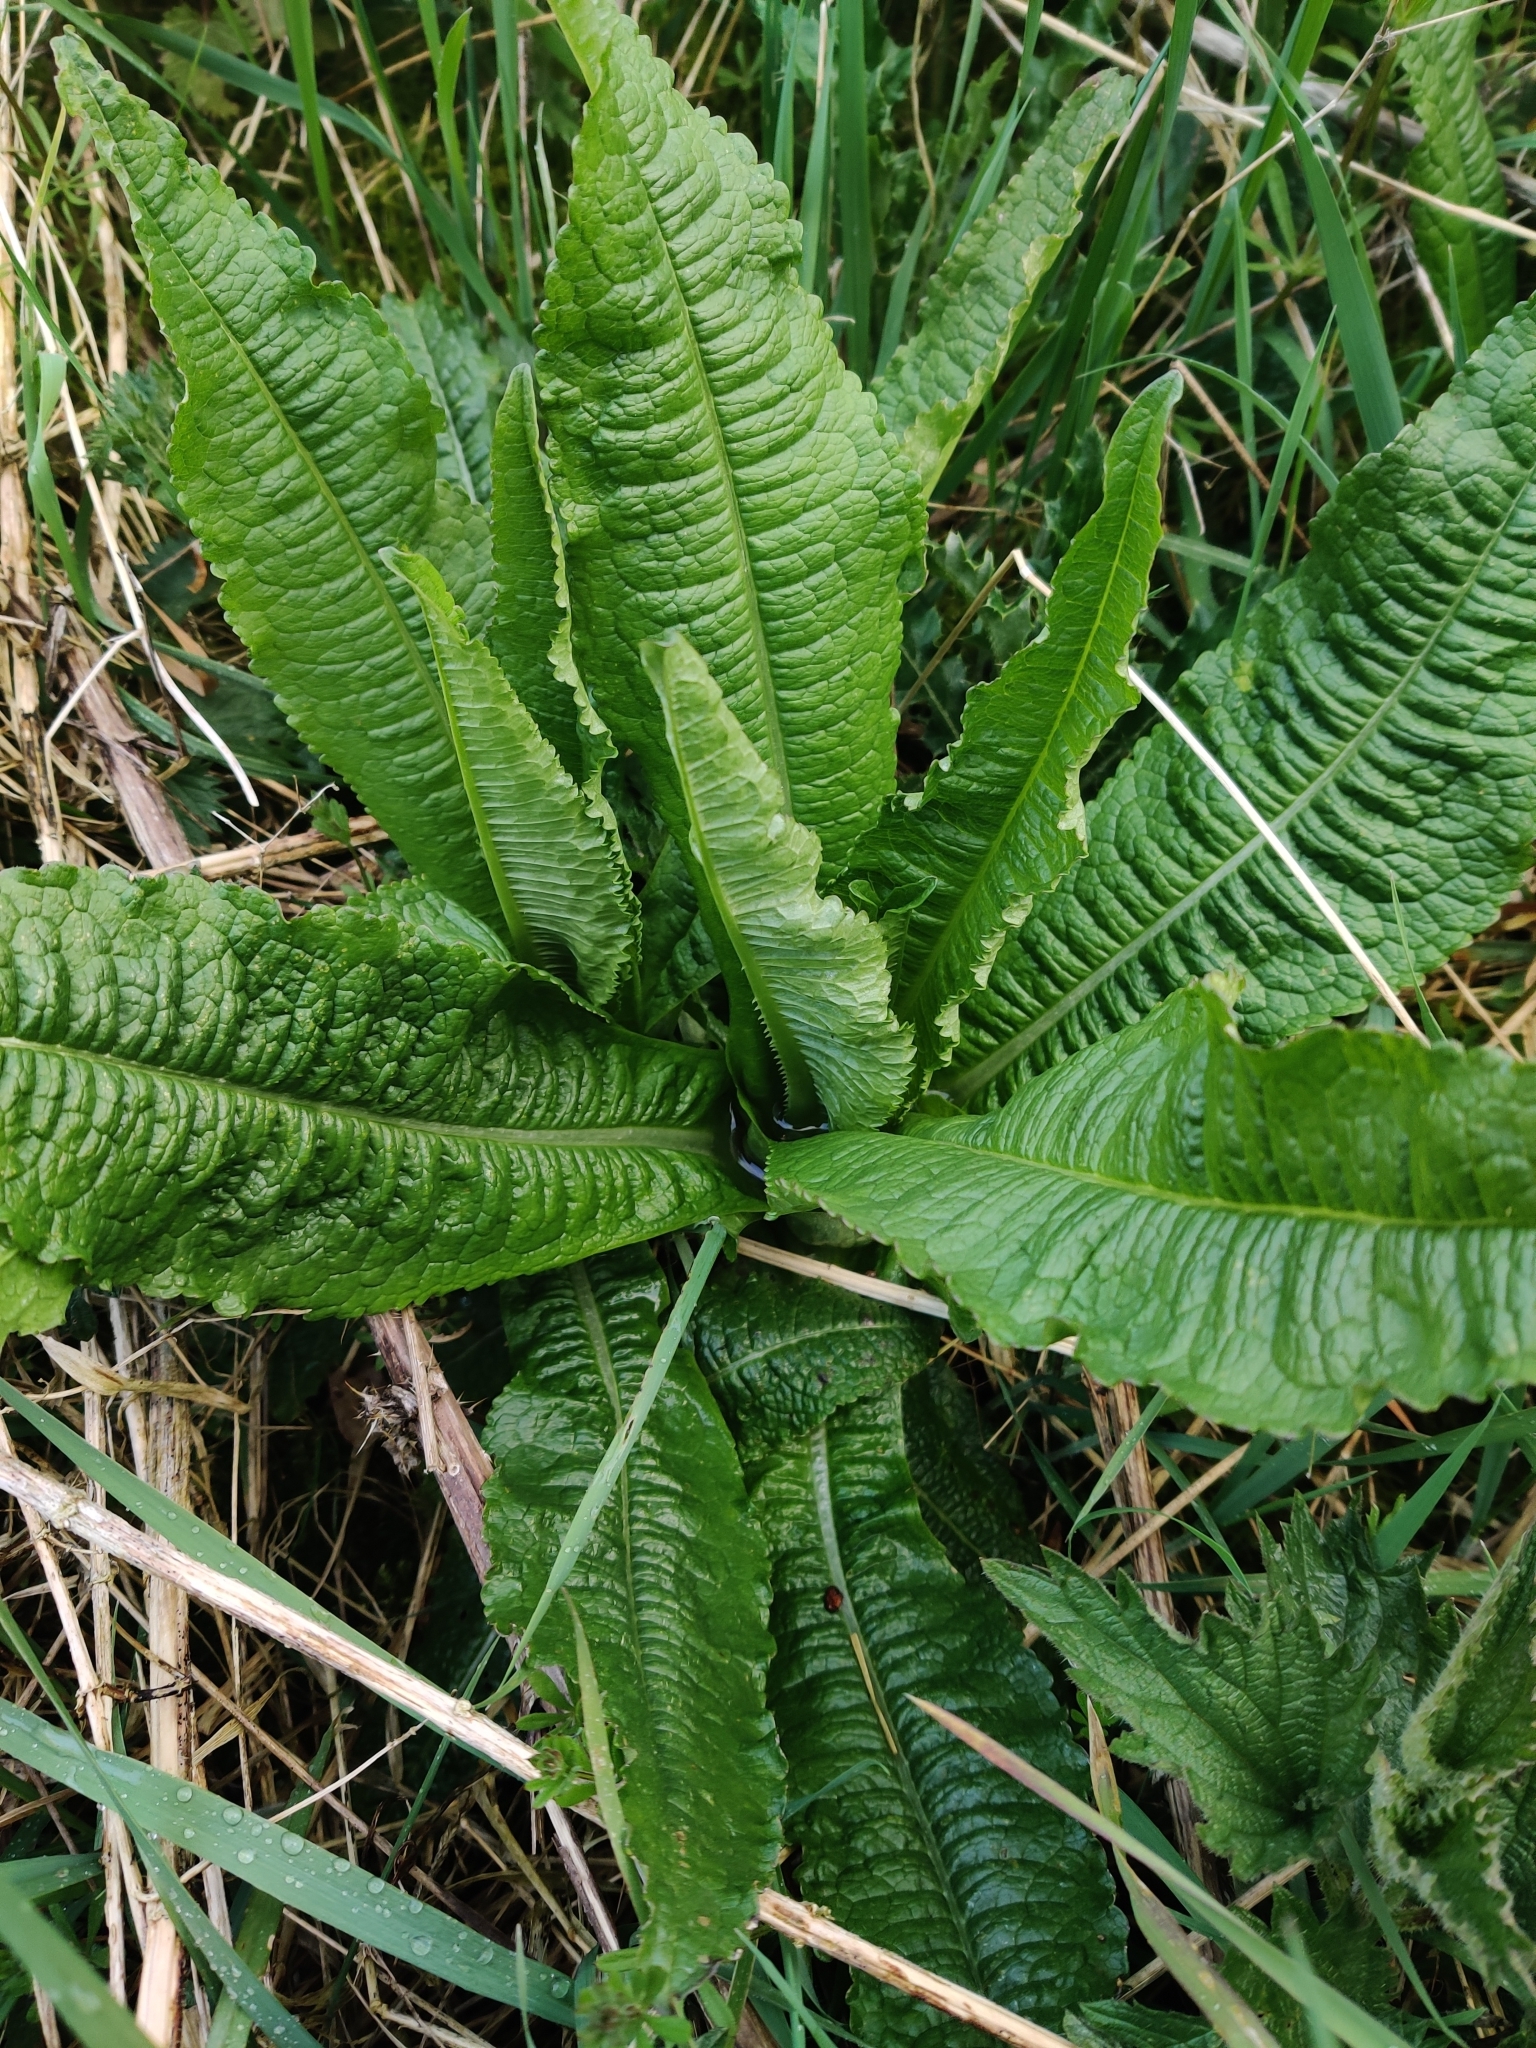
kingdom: Plantae
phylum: Tracheophyta
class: Magnoliopsida
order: Dipsacales
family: Caprifoliaceae
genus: Dipsacus
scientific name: Dipsacus fullonum
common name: Teasel
